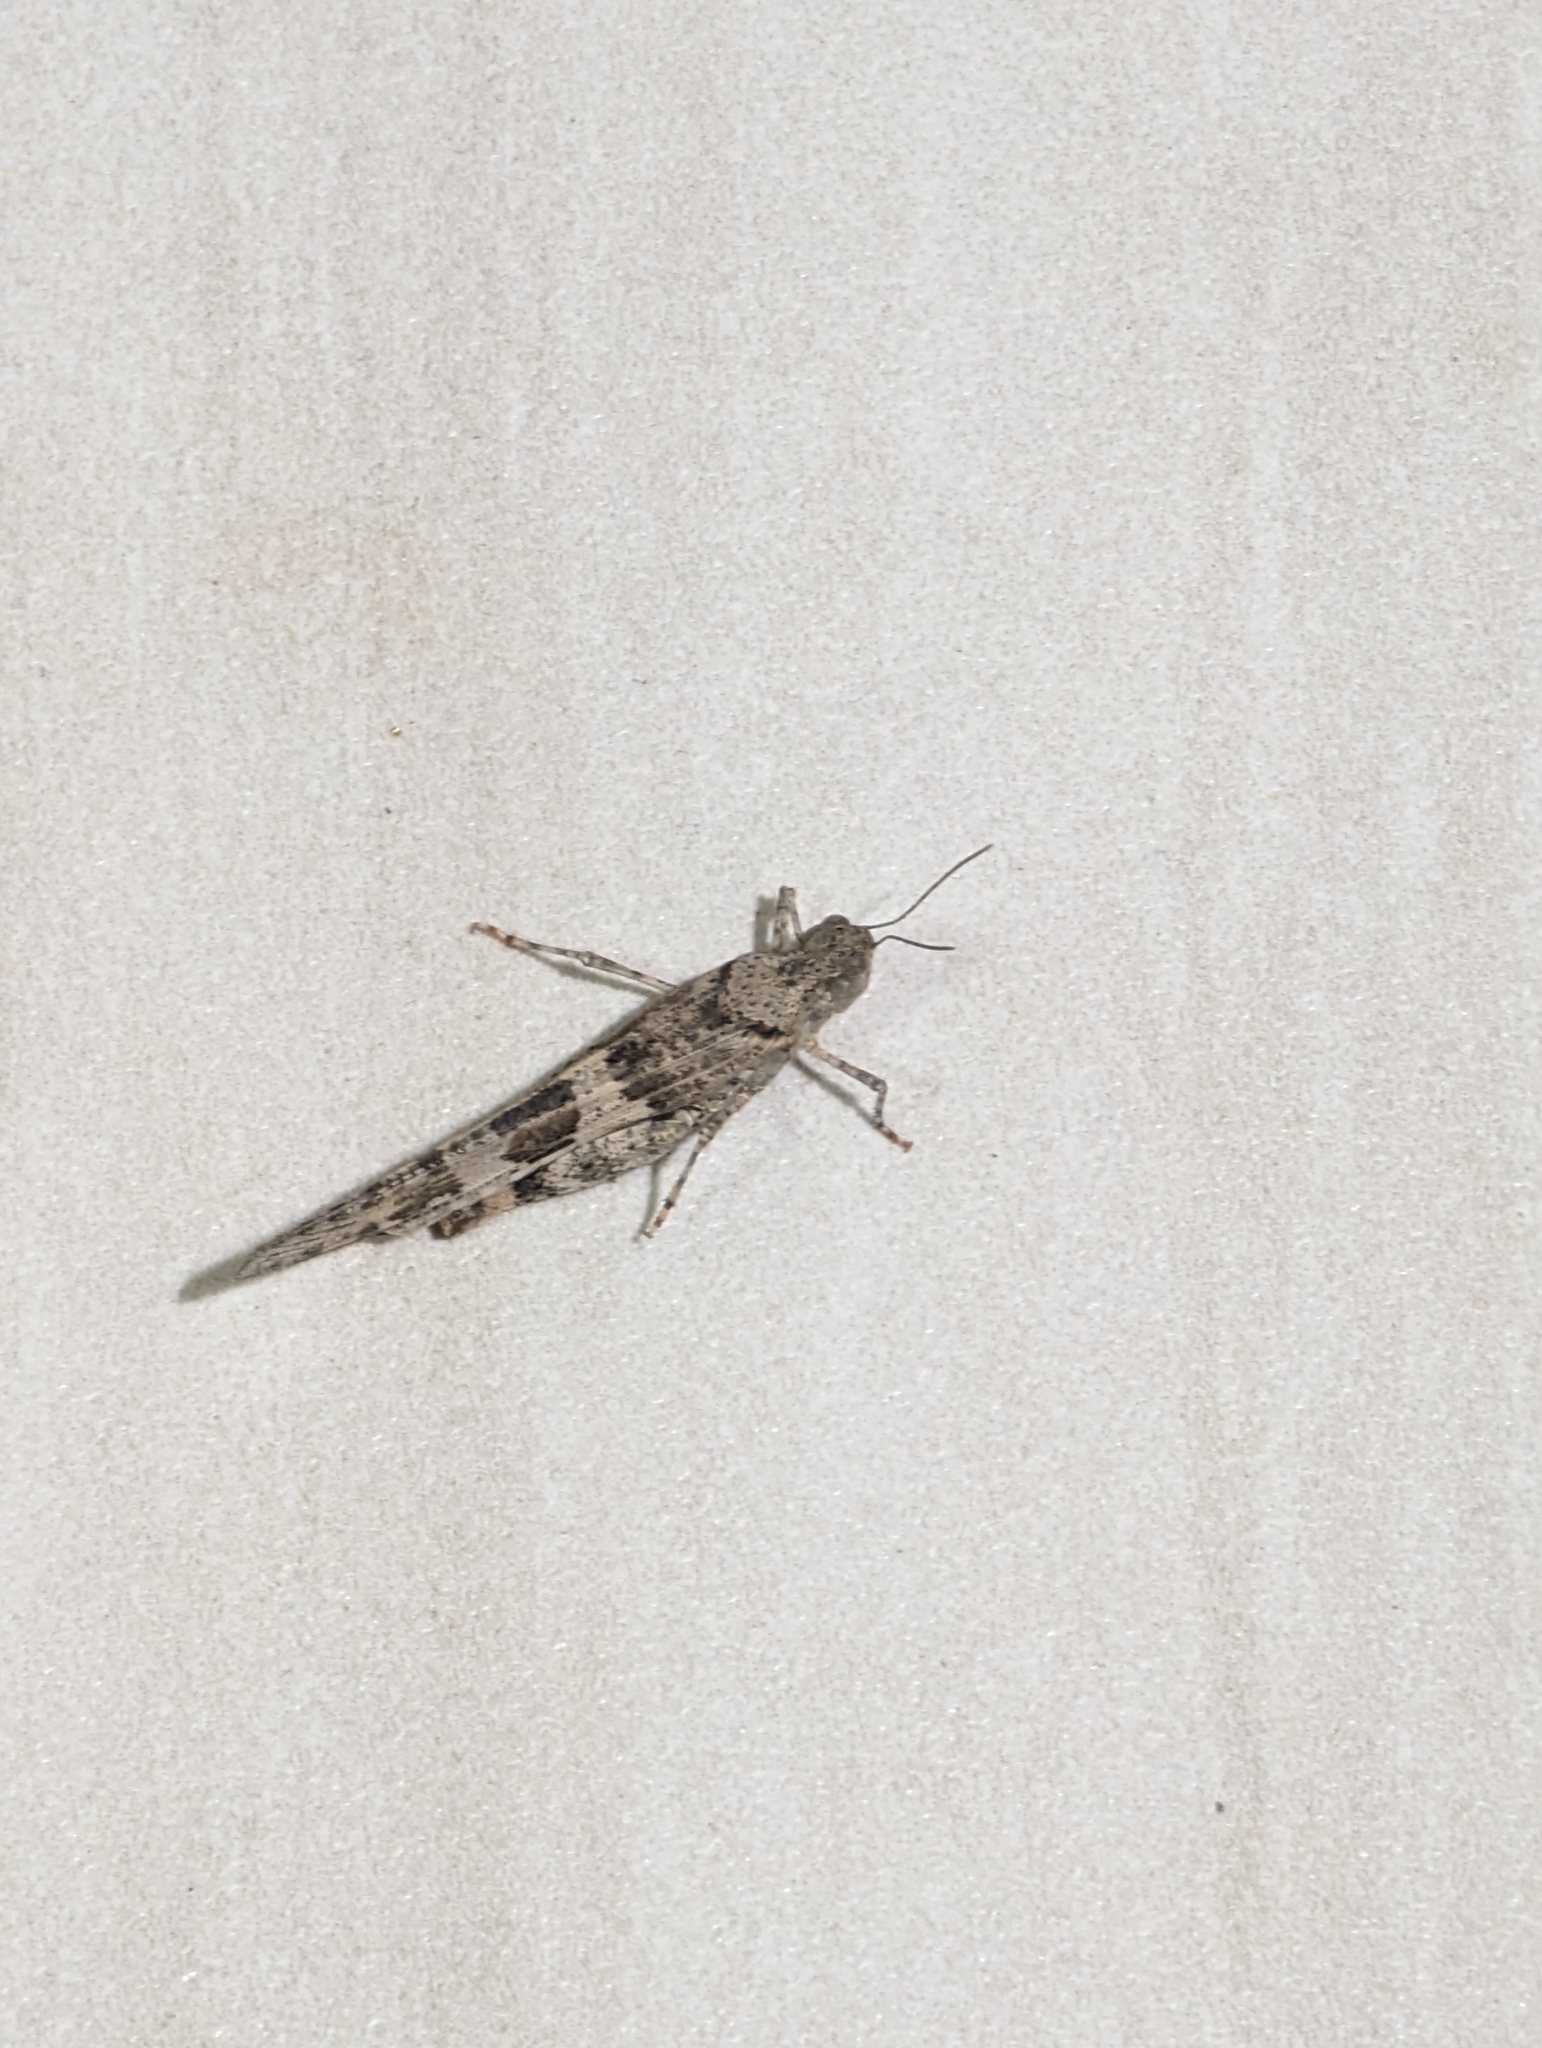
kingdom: Animalia
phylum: Arthropoda
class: Insecta
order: Orthoptera
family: Acrididae
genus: Trimerotropis
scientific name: Trimerotropis pallidipennis
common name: Pallid-winged grasshopper
